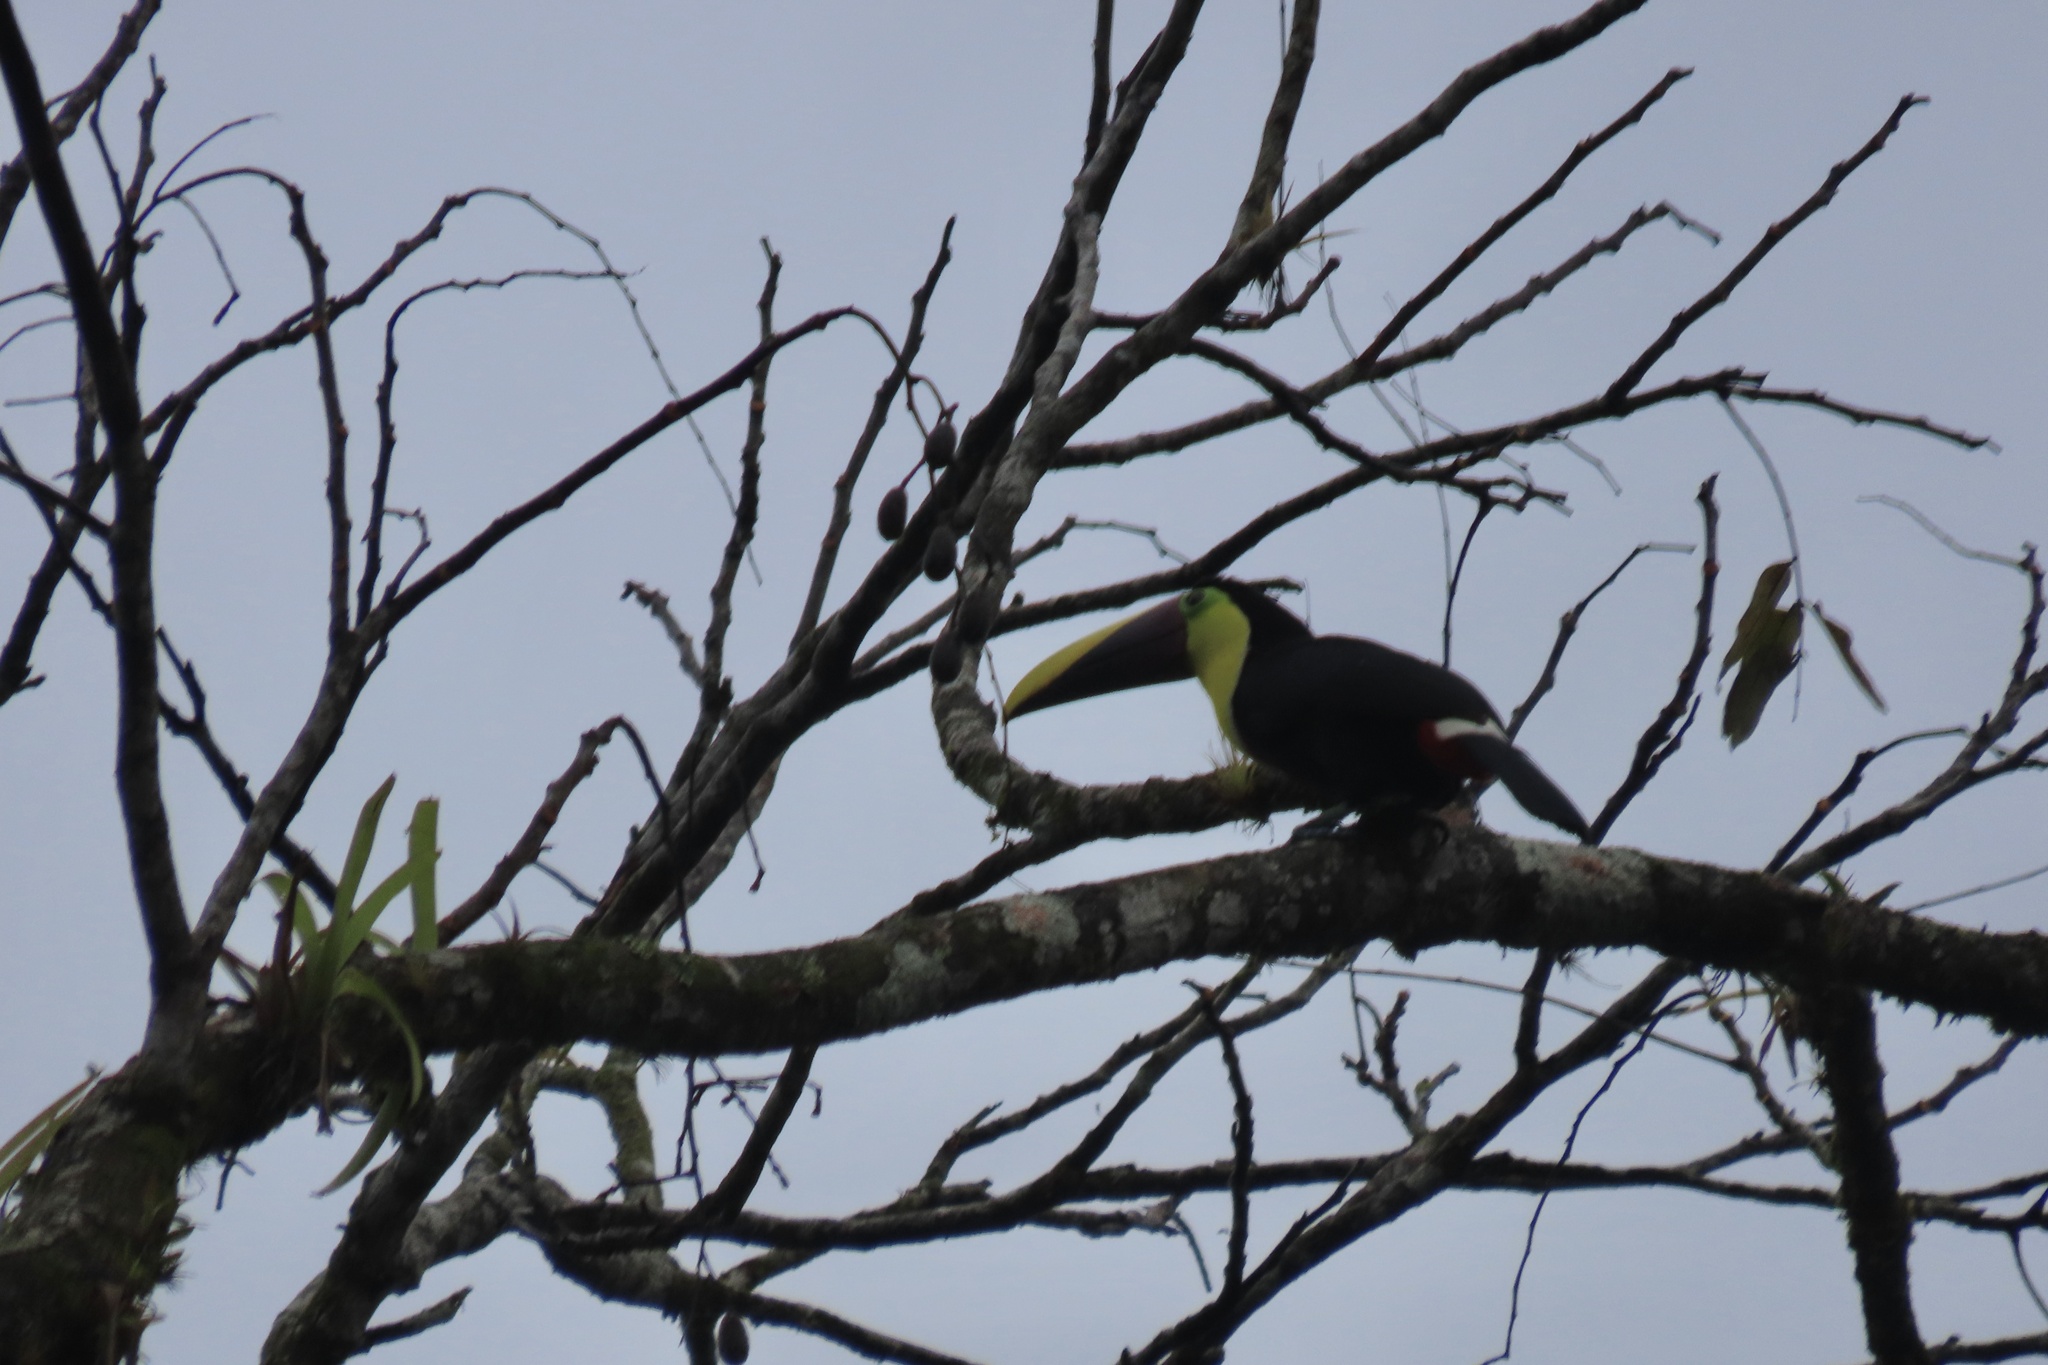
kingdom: Animalia
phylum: Chordata
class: Aves
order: Piciformes
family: Ramphastidae
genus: Ramphastos
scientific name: Ramphastos ambiguus
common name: Yellow-throated toucan
